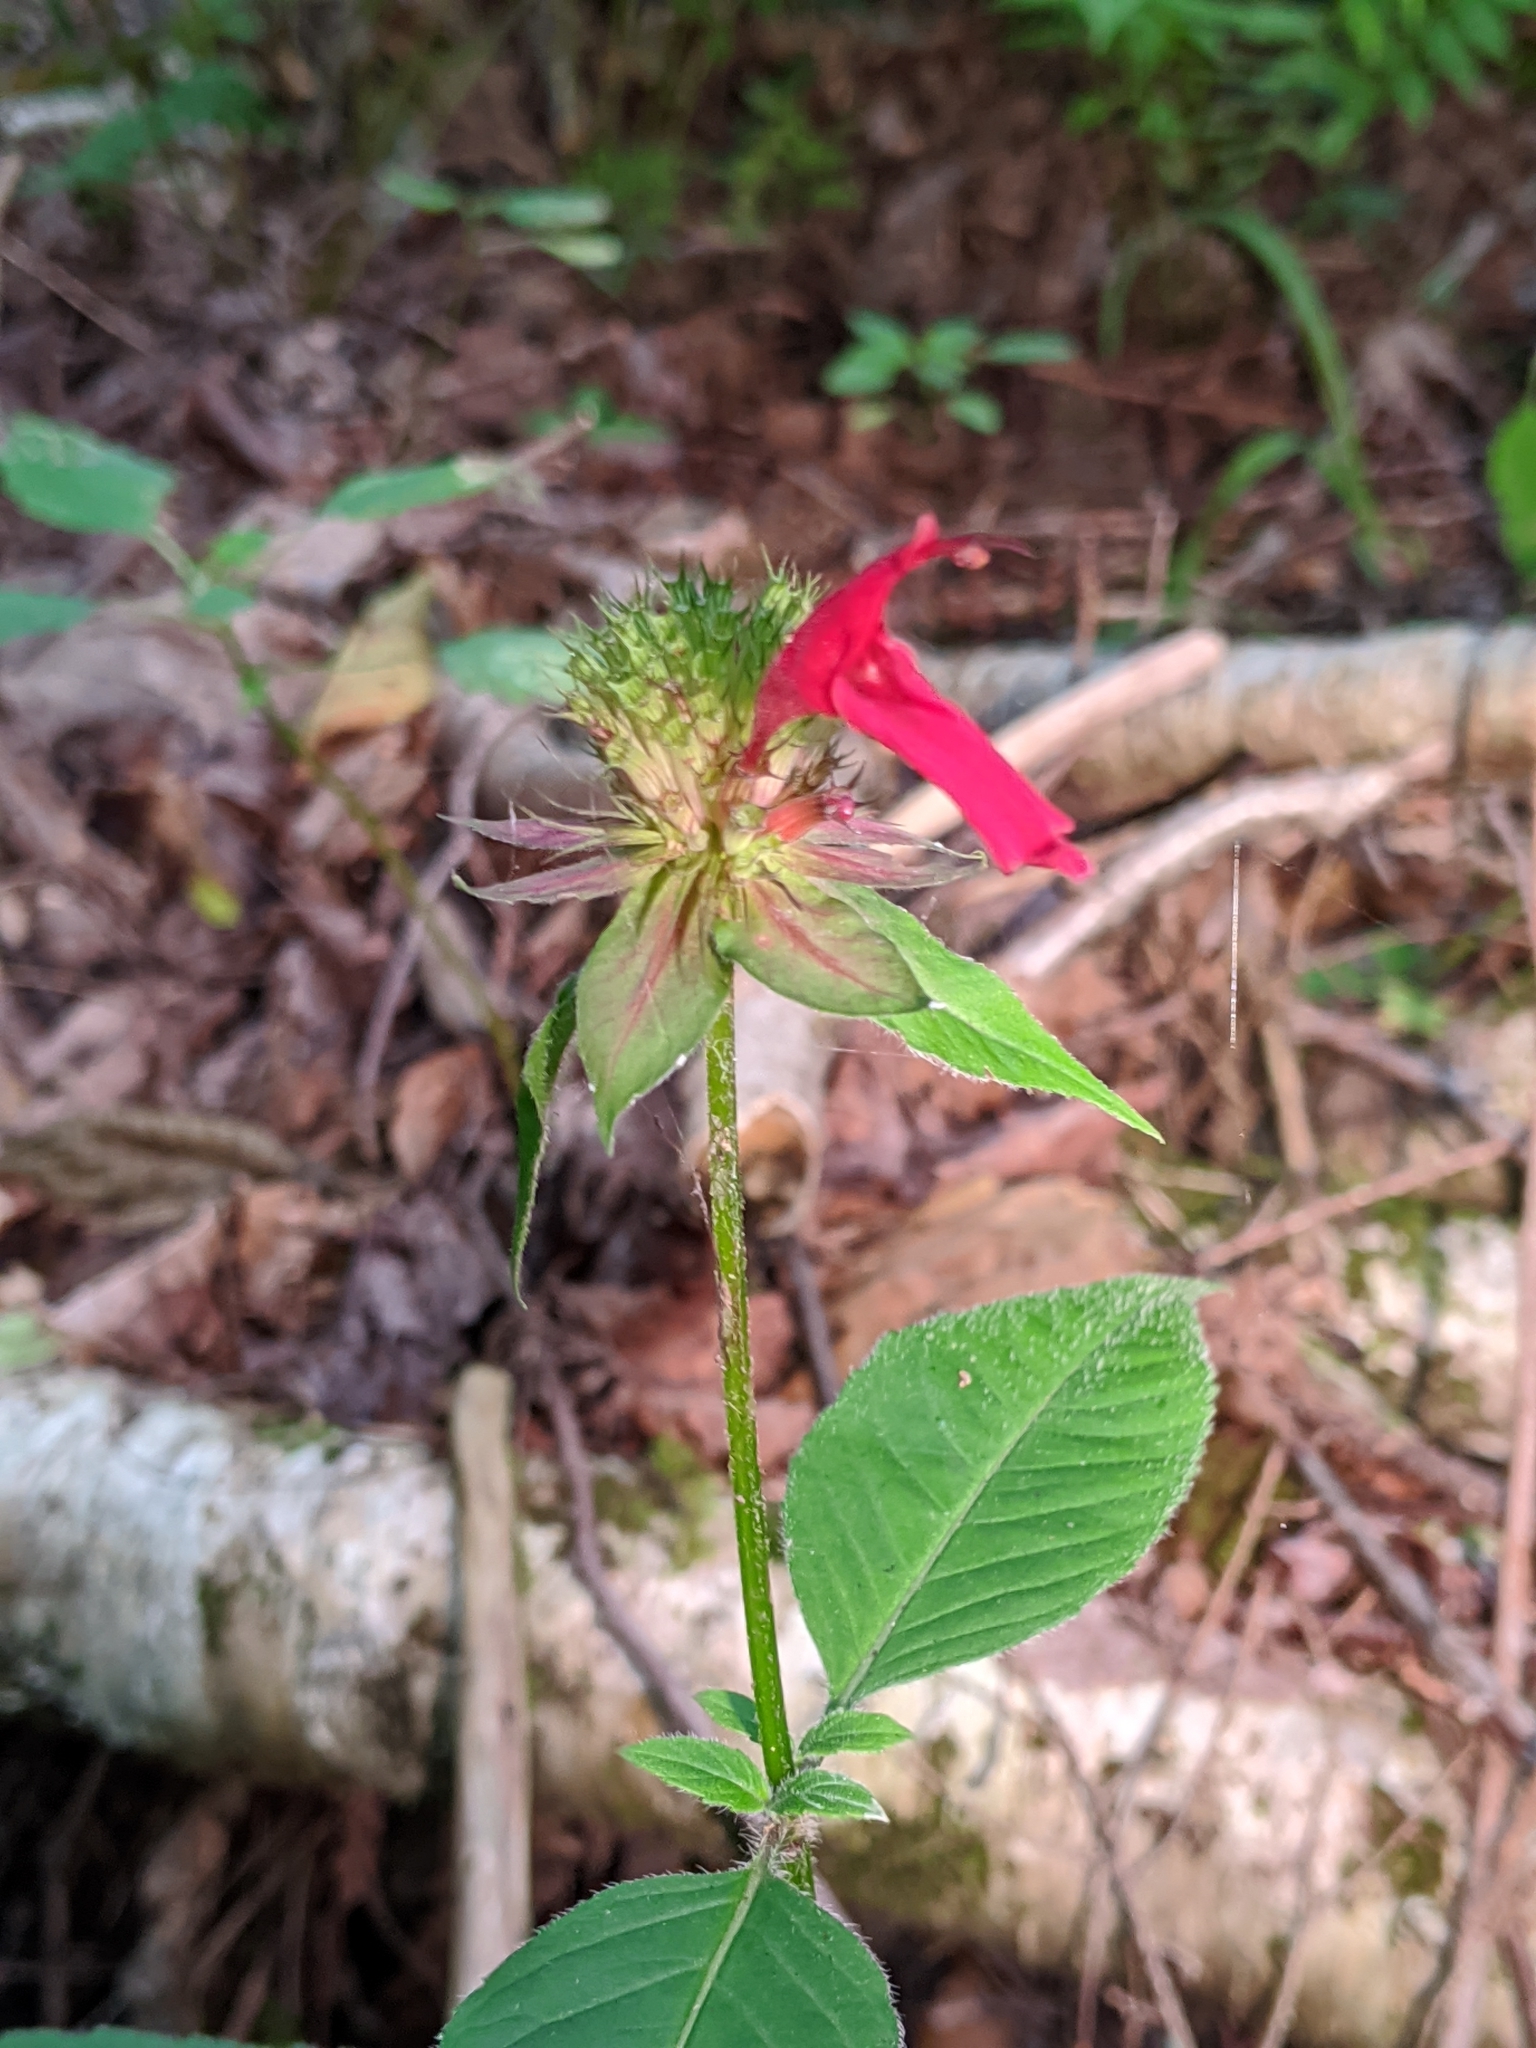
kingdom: Plantae
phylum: Tracheophyta
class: Magnoliopsida
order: Lamiales
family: Lamiaceae
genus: Monarda
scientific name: Monarda didyma
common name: Beebalm
